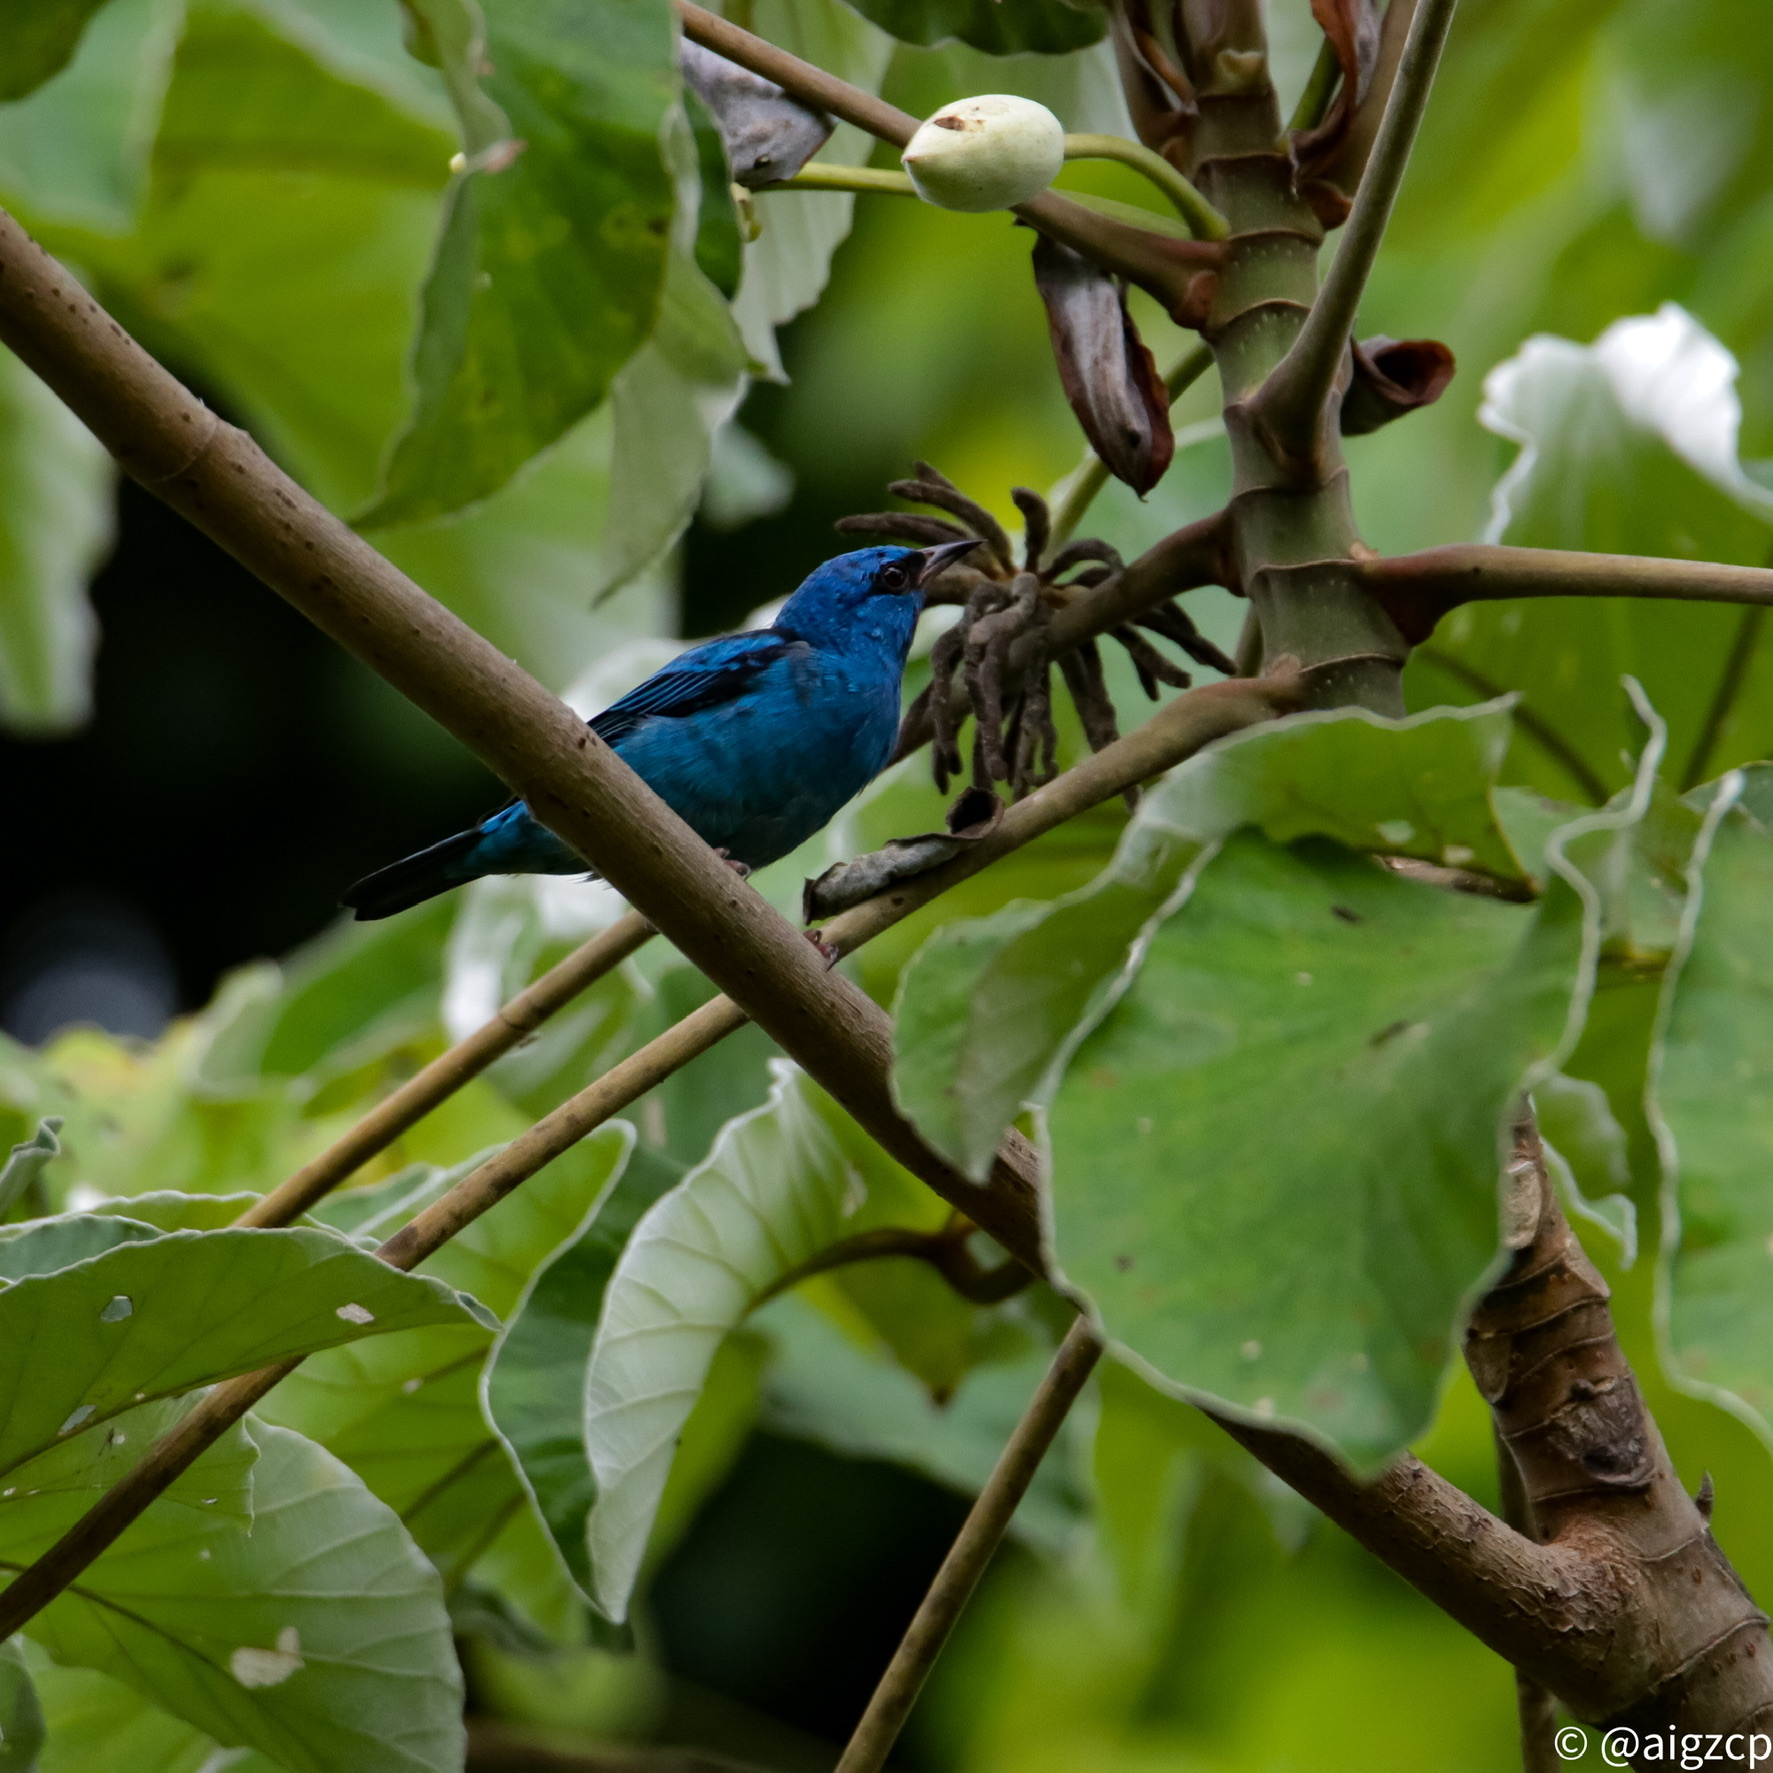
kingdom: Animalia
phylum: Chordata
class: Aves
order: Passeriformes
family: Thraupidae
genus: Dacnis
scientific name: Dacnis cayana
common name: Blue dacnis
